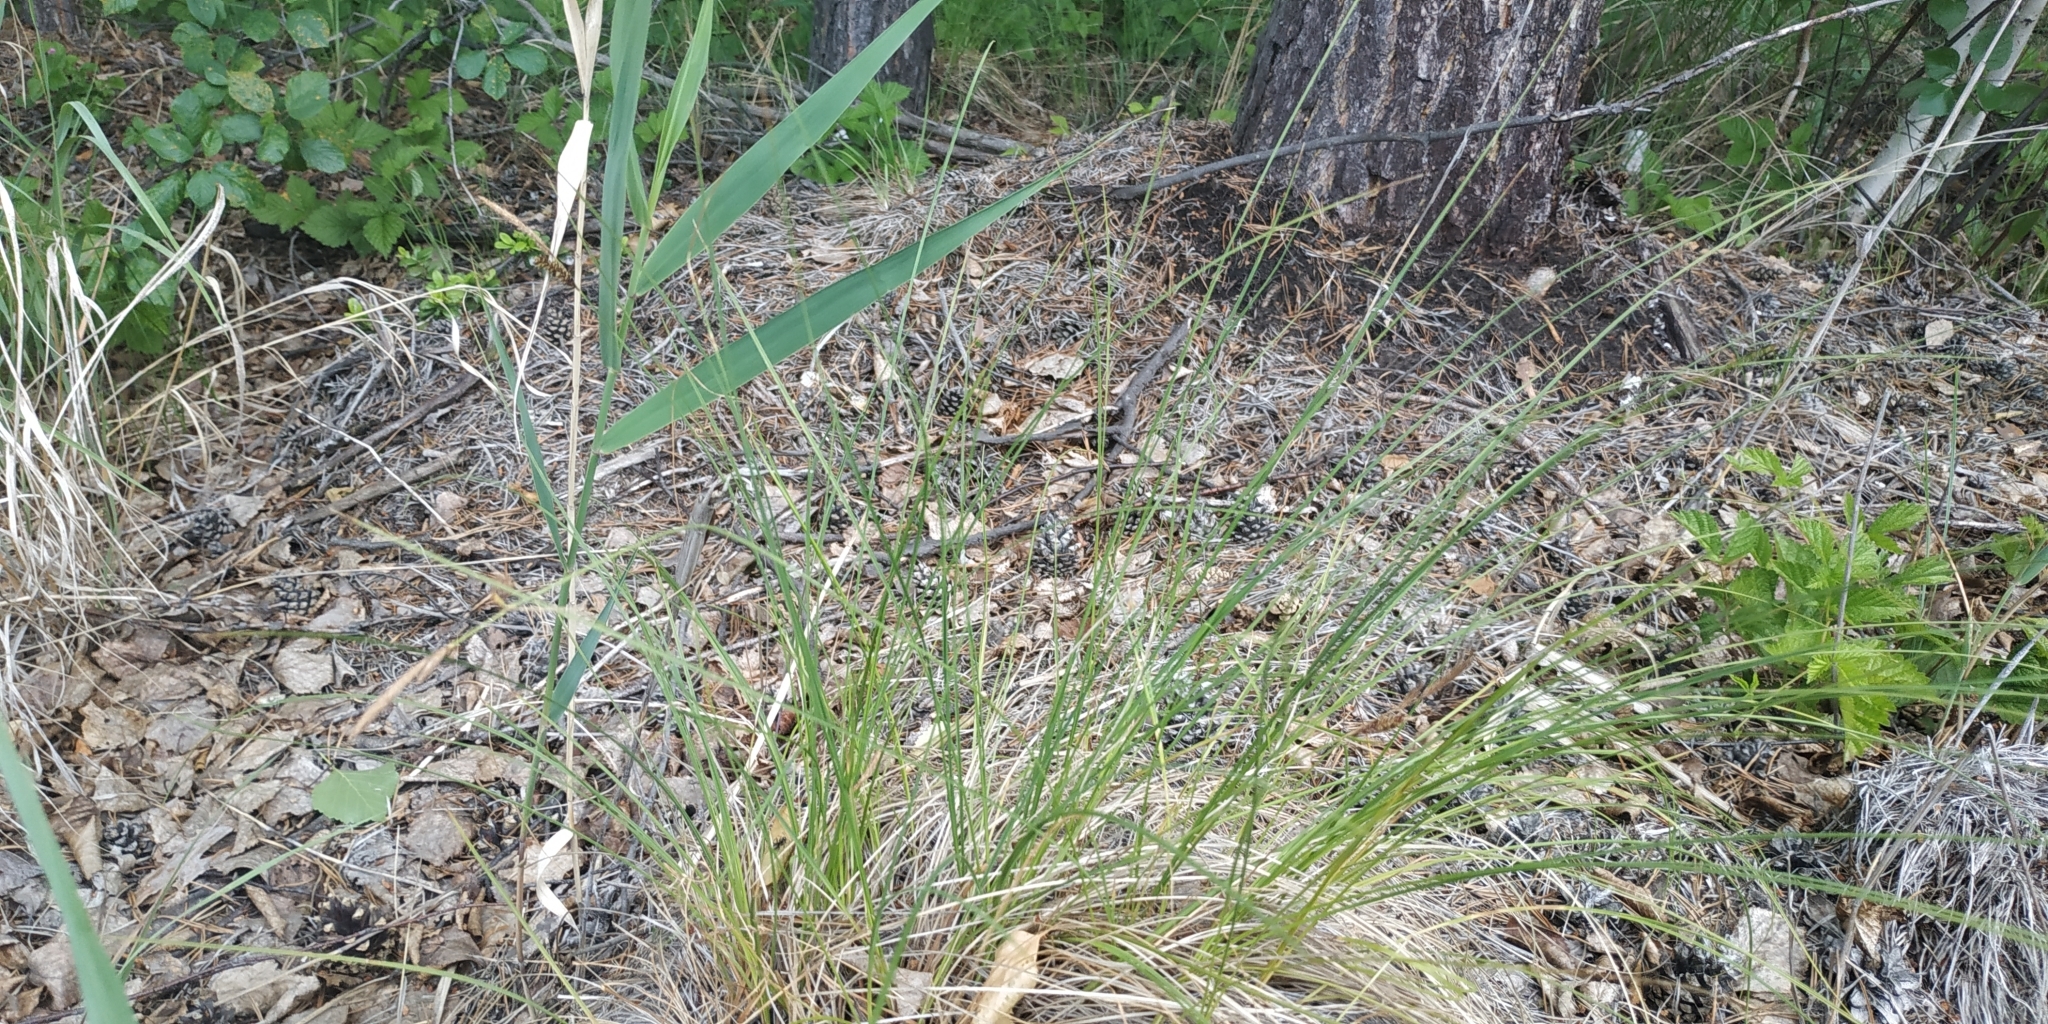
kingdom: Plantae
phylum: Tracheophyta
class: Liliopsida
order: Poales
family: Cyperaceae
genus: Carex
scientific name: Carex nigra
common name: Common sedge
